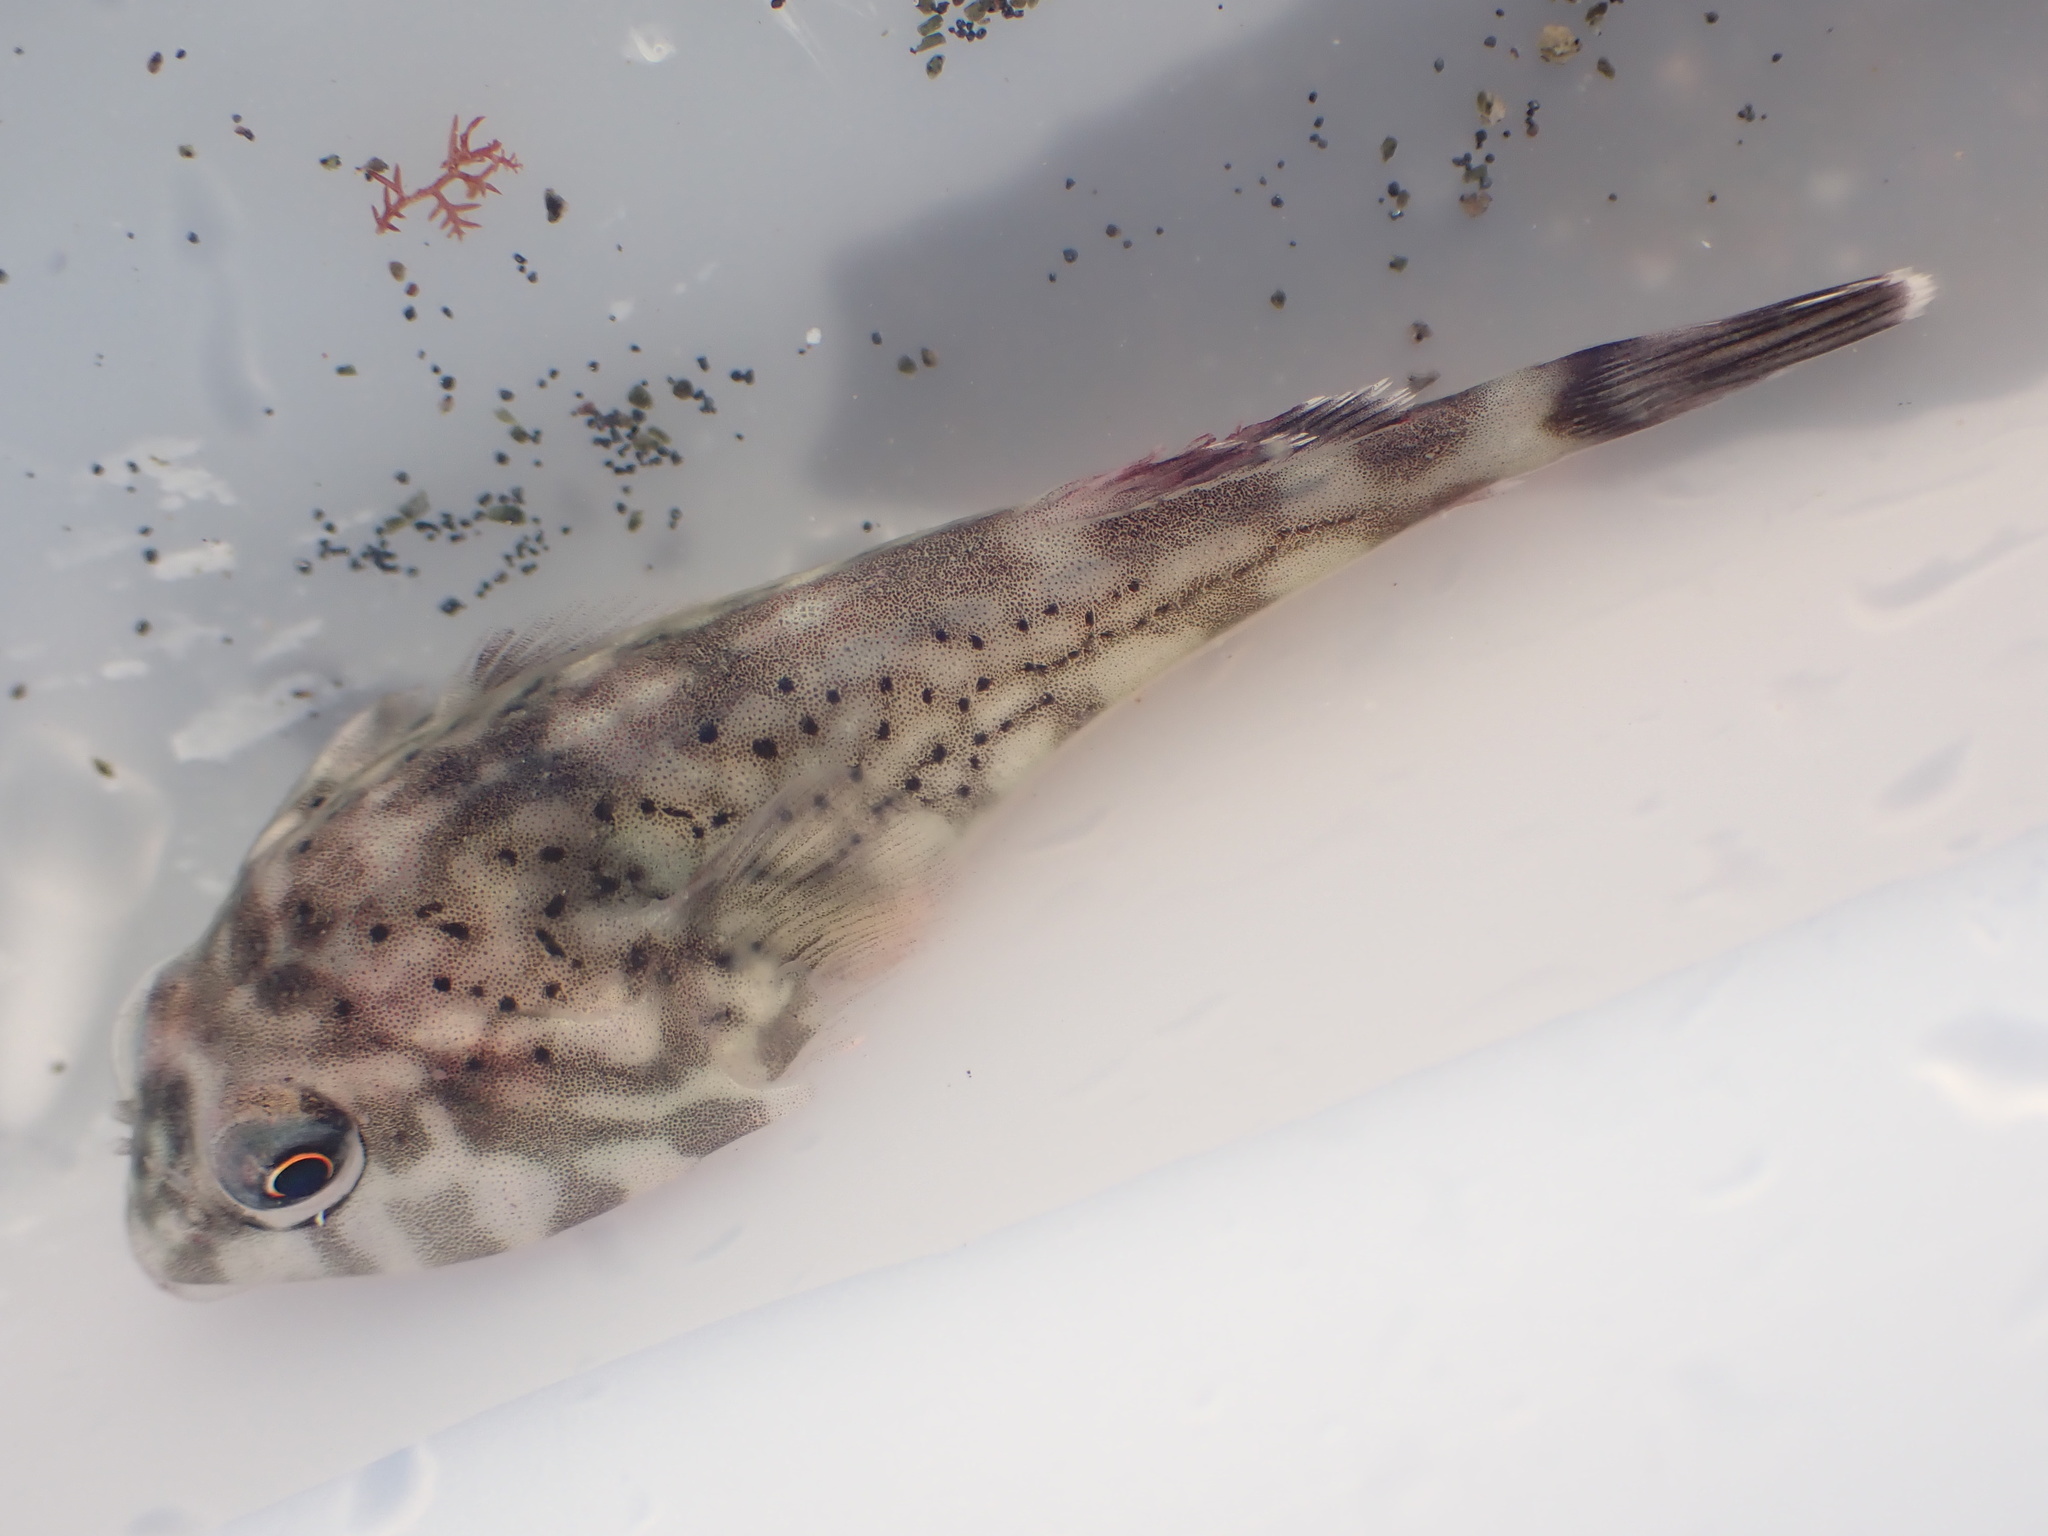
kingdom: Animalia
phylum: Chordata
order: Gobiesociformes
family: Gobiesocidae
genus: Diplocrepis
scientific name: Diplocrepis puniceus
